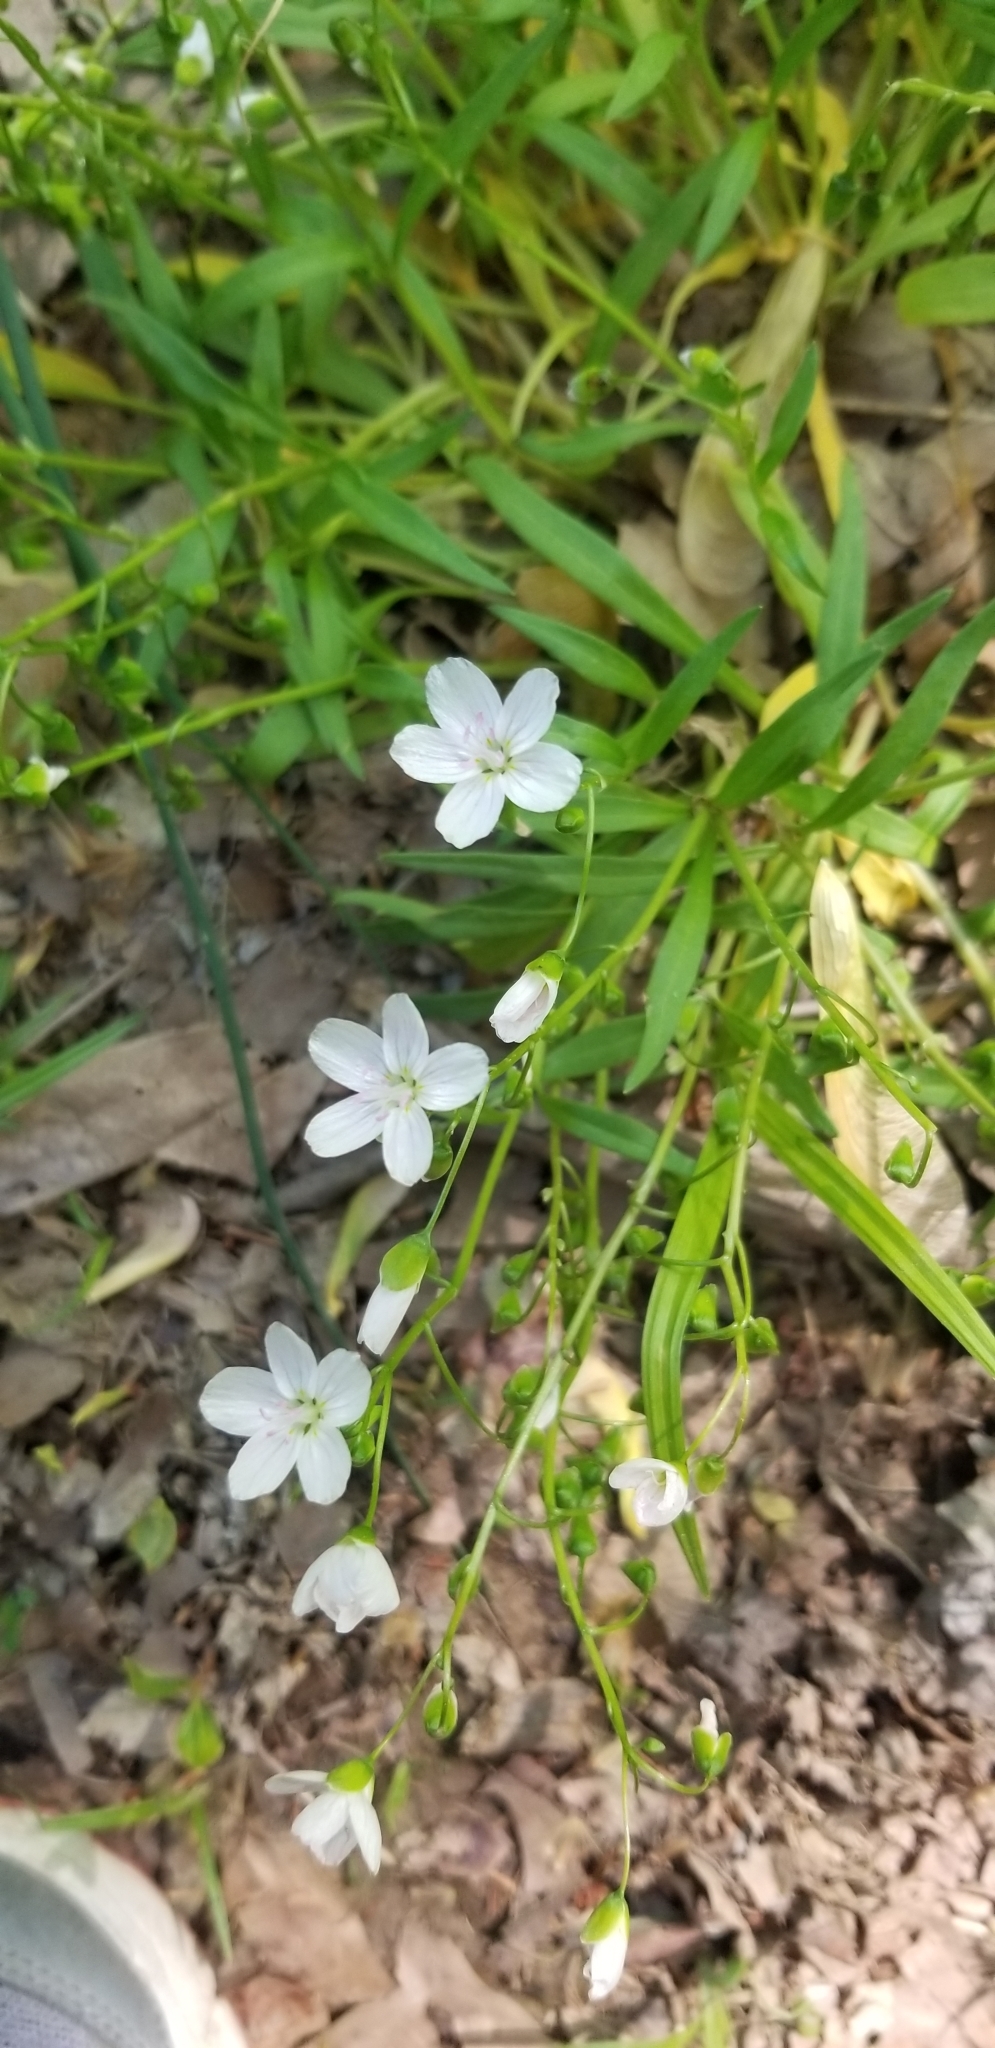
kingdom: Plantae
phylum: Tracheophyta
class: Magnoliopsida
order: Caryophyllales
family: Montiaceae
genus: Claytonia
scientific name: Claytonia virginica
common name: Virginia springbeauty
